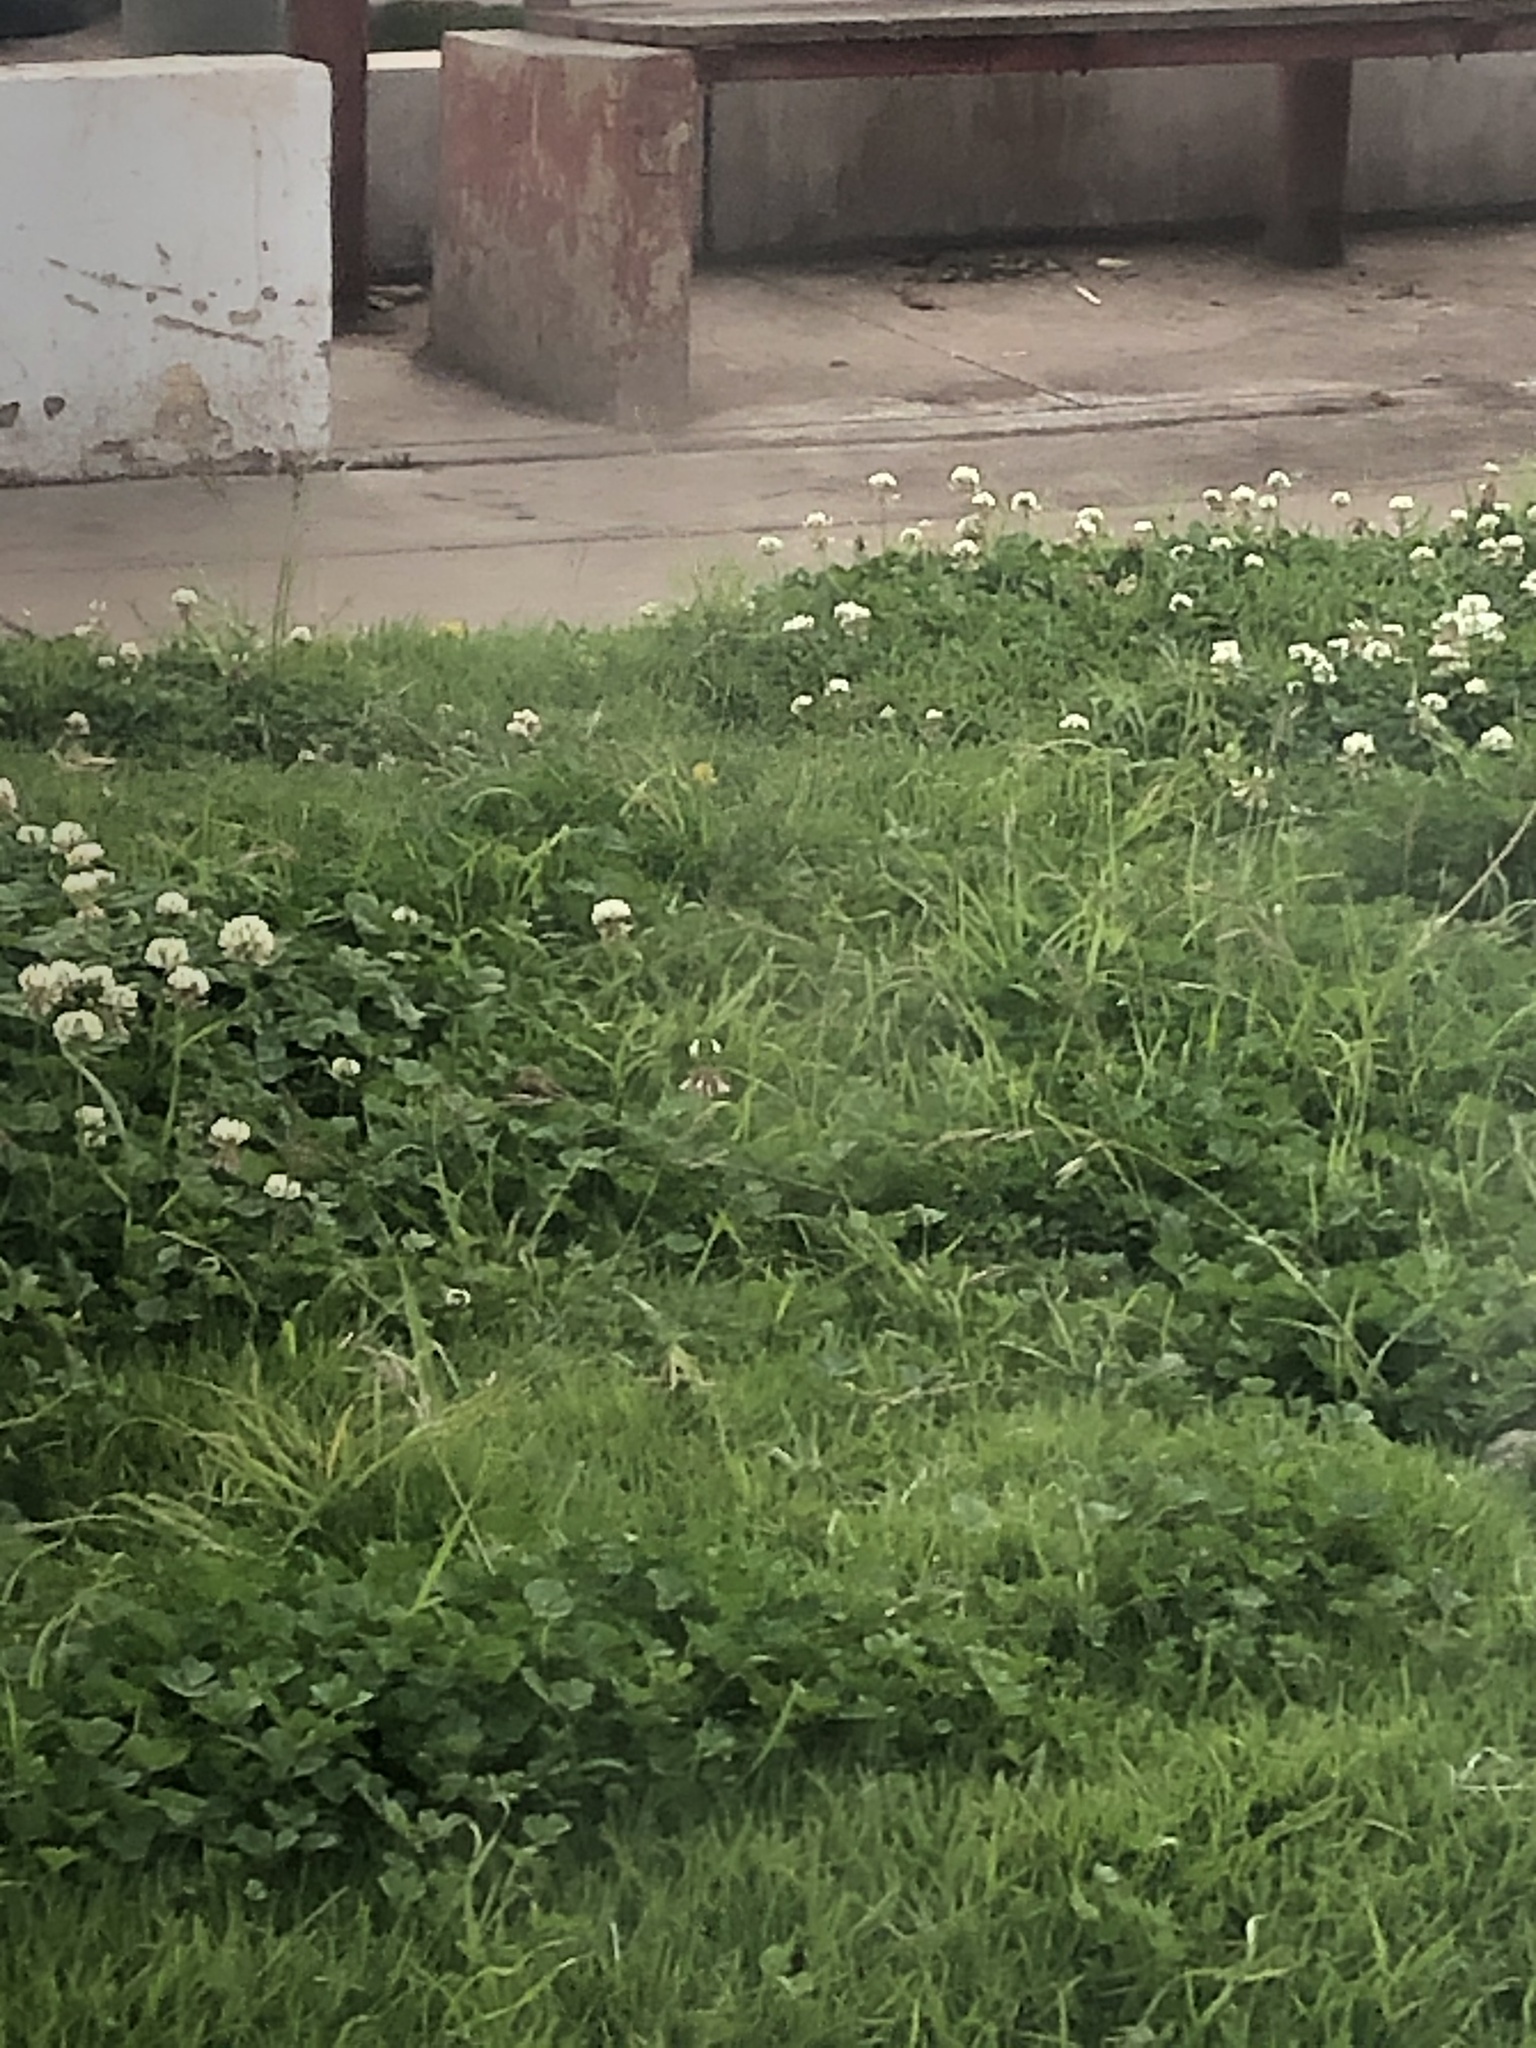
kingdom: Plantae
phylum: Tracheophyta
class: Magnoliopsida
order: Fabales
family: Fabaceae
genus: Trifolium
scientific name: Trifolium repens
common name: White clover
